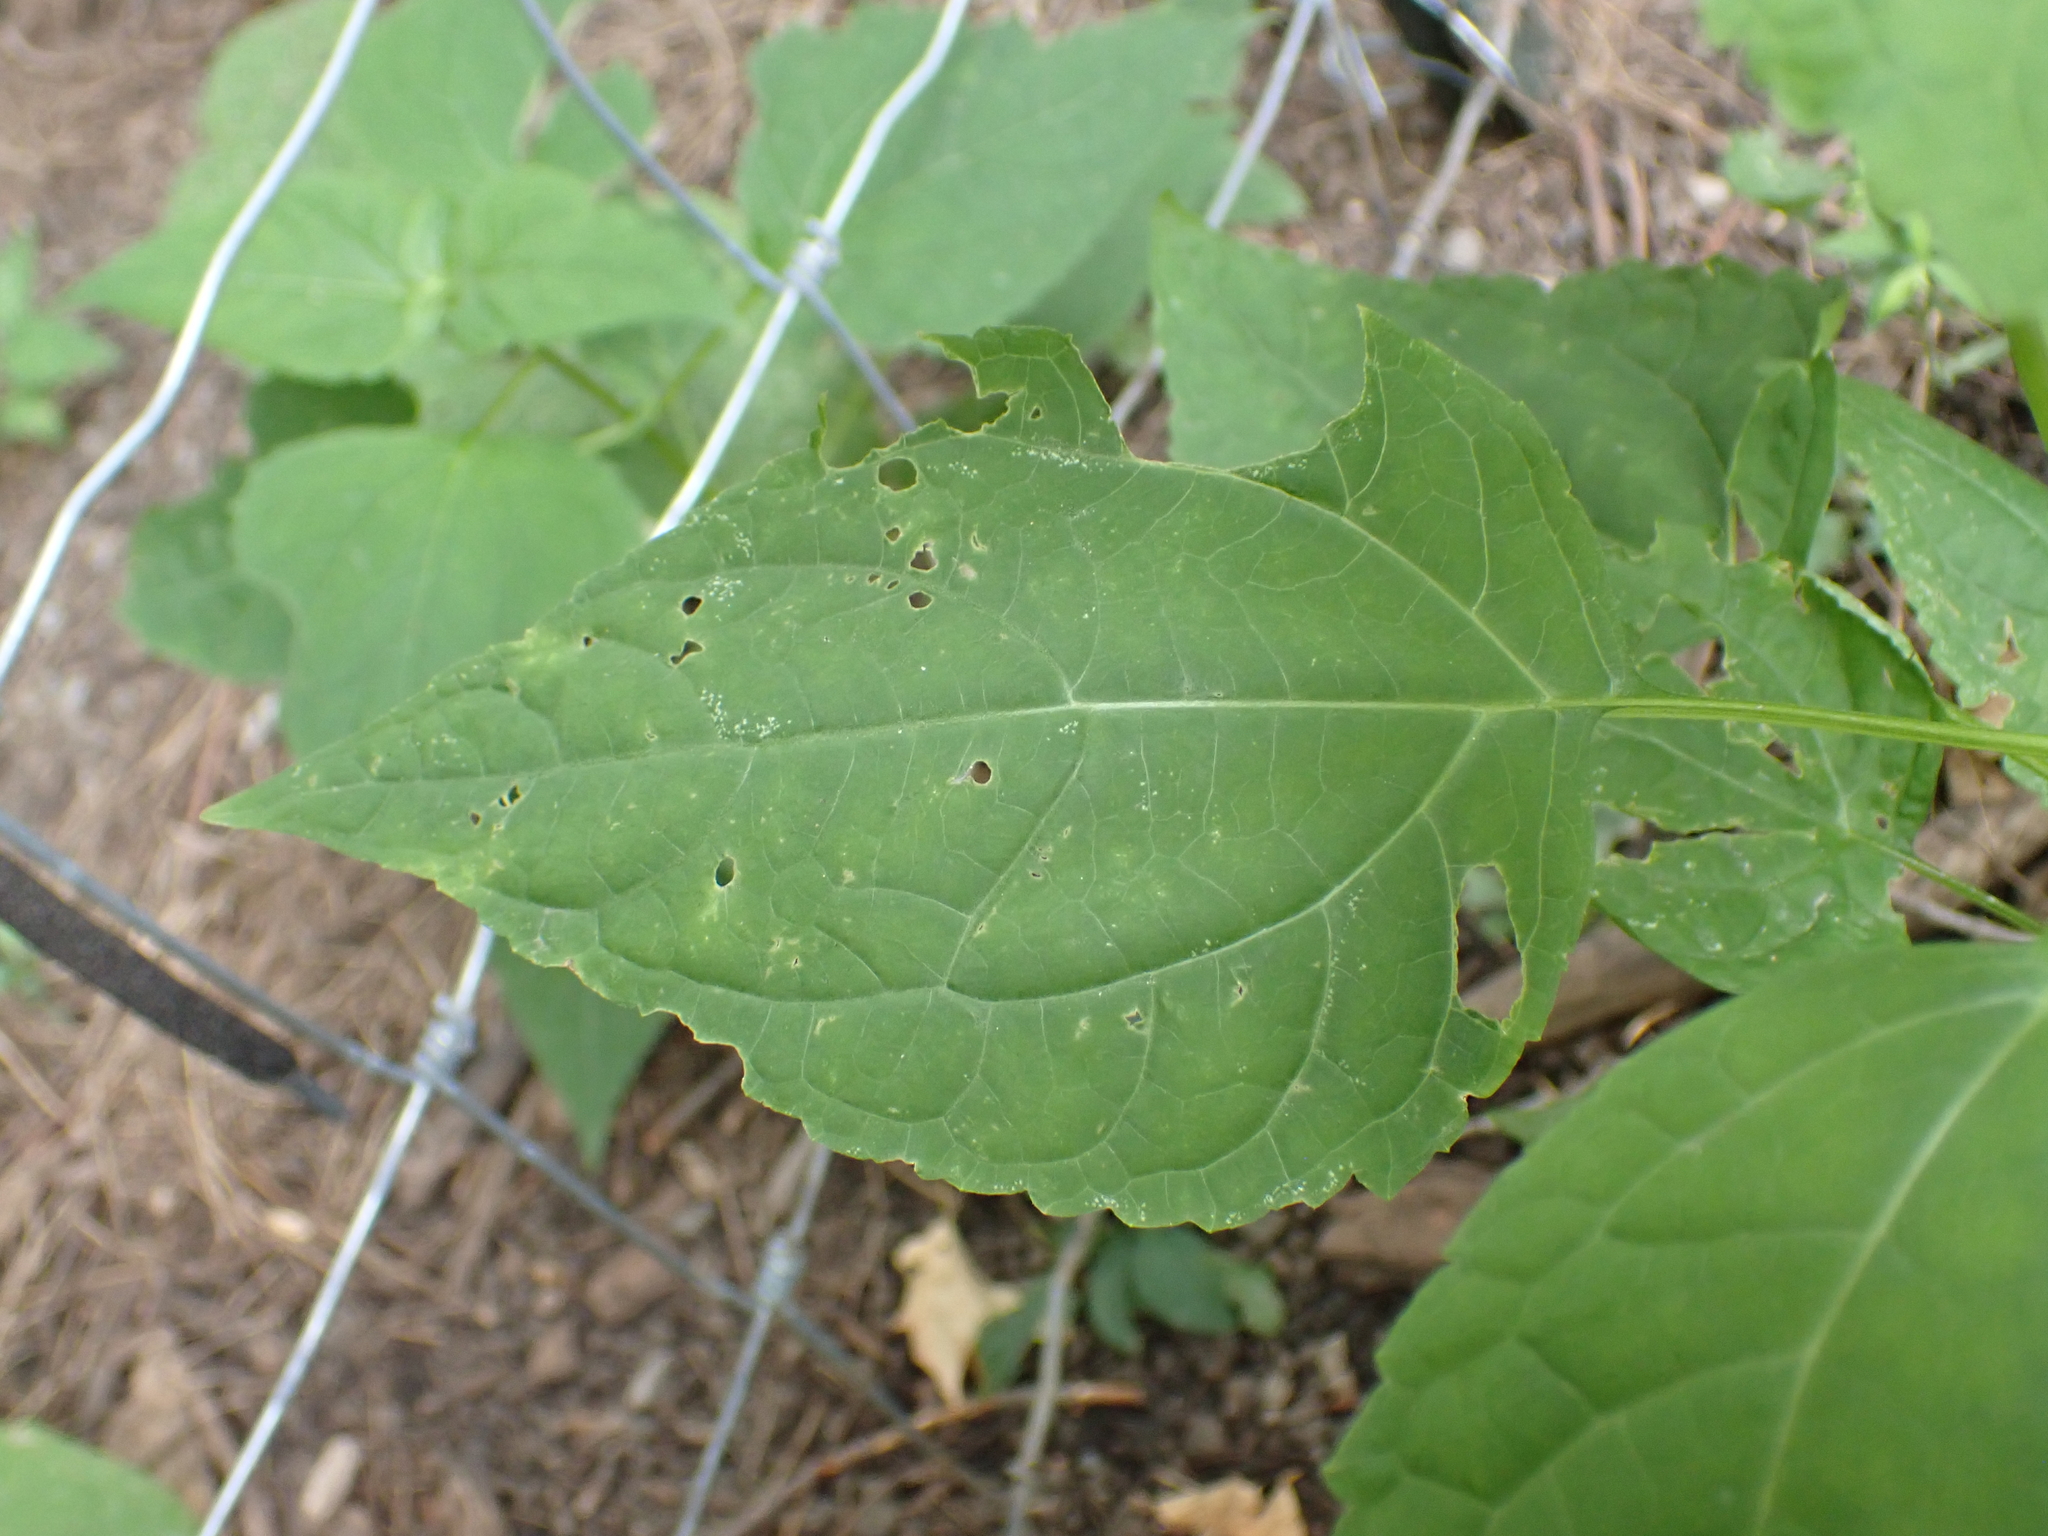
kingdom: Plantae
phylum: Tracheophyta
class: Magnoliopsida
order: Asterales
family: Asteraceae
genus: Ageratina
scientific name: Ageratina altissima
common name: White snakeroot
